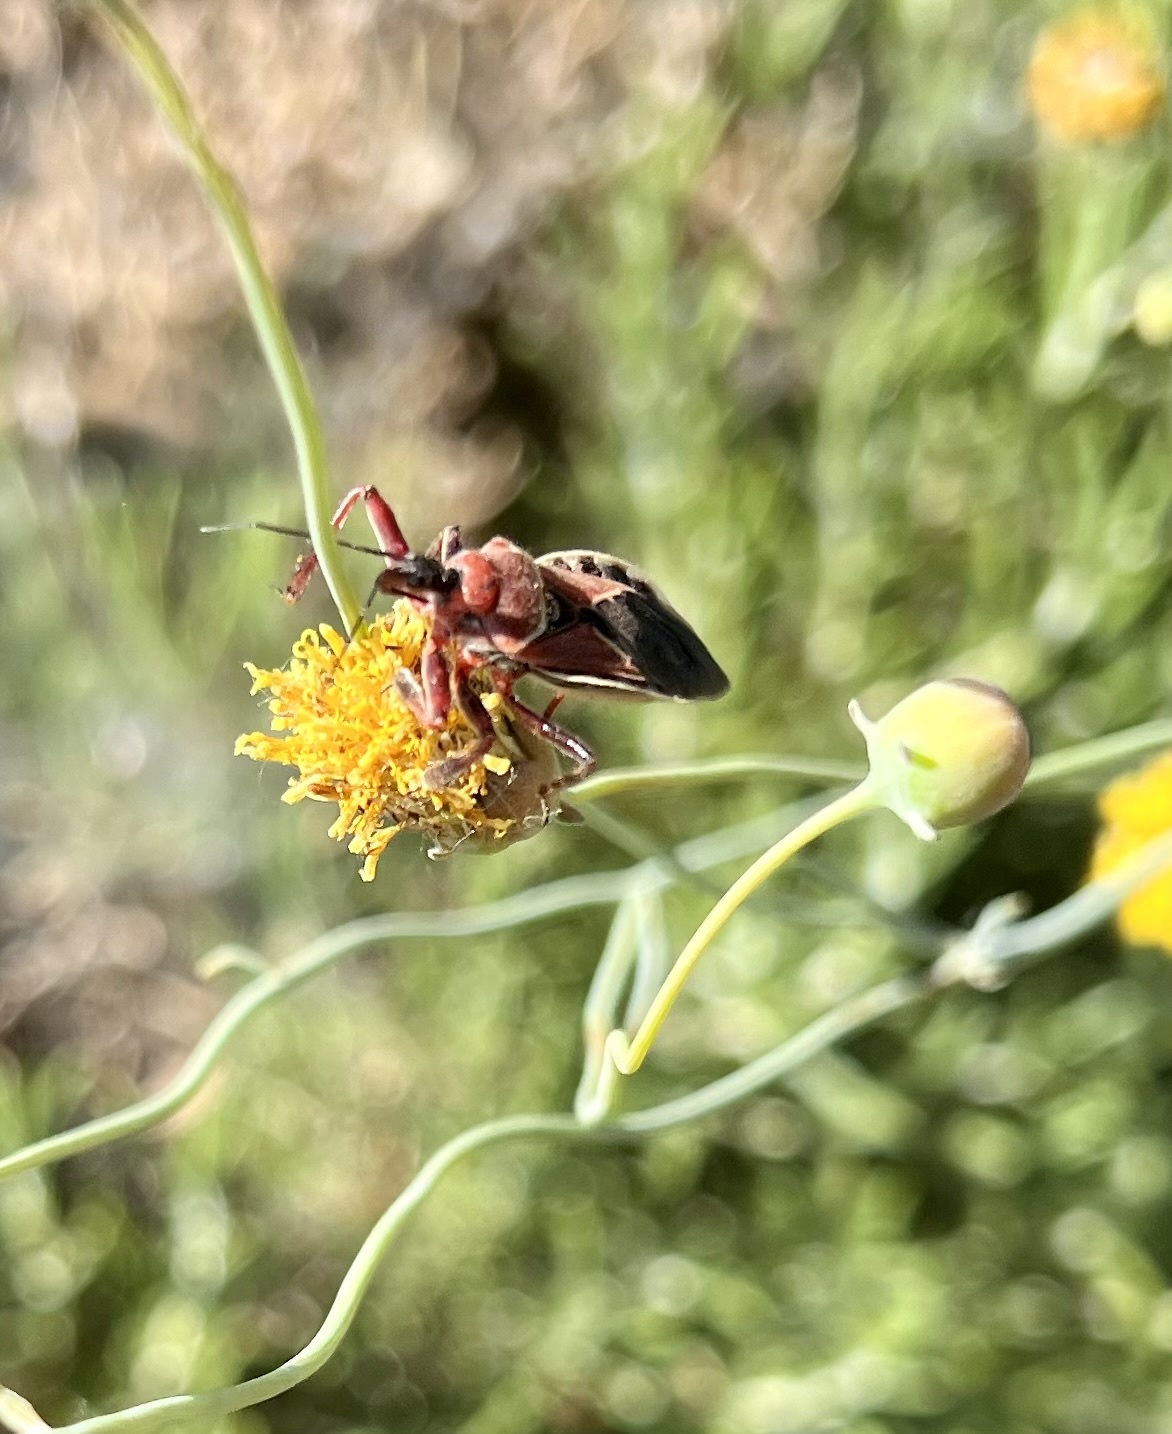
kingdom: Animalia
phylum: Arthropoda
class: Insecta
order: Hemiptera
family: Reduviidae
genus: Apiomerus
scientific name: Apiomerus spissipes
